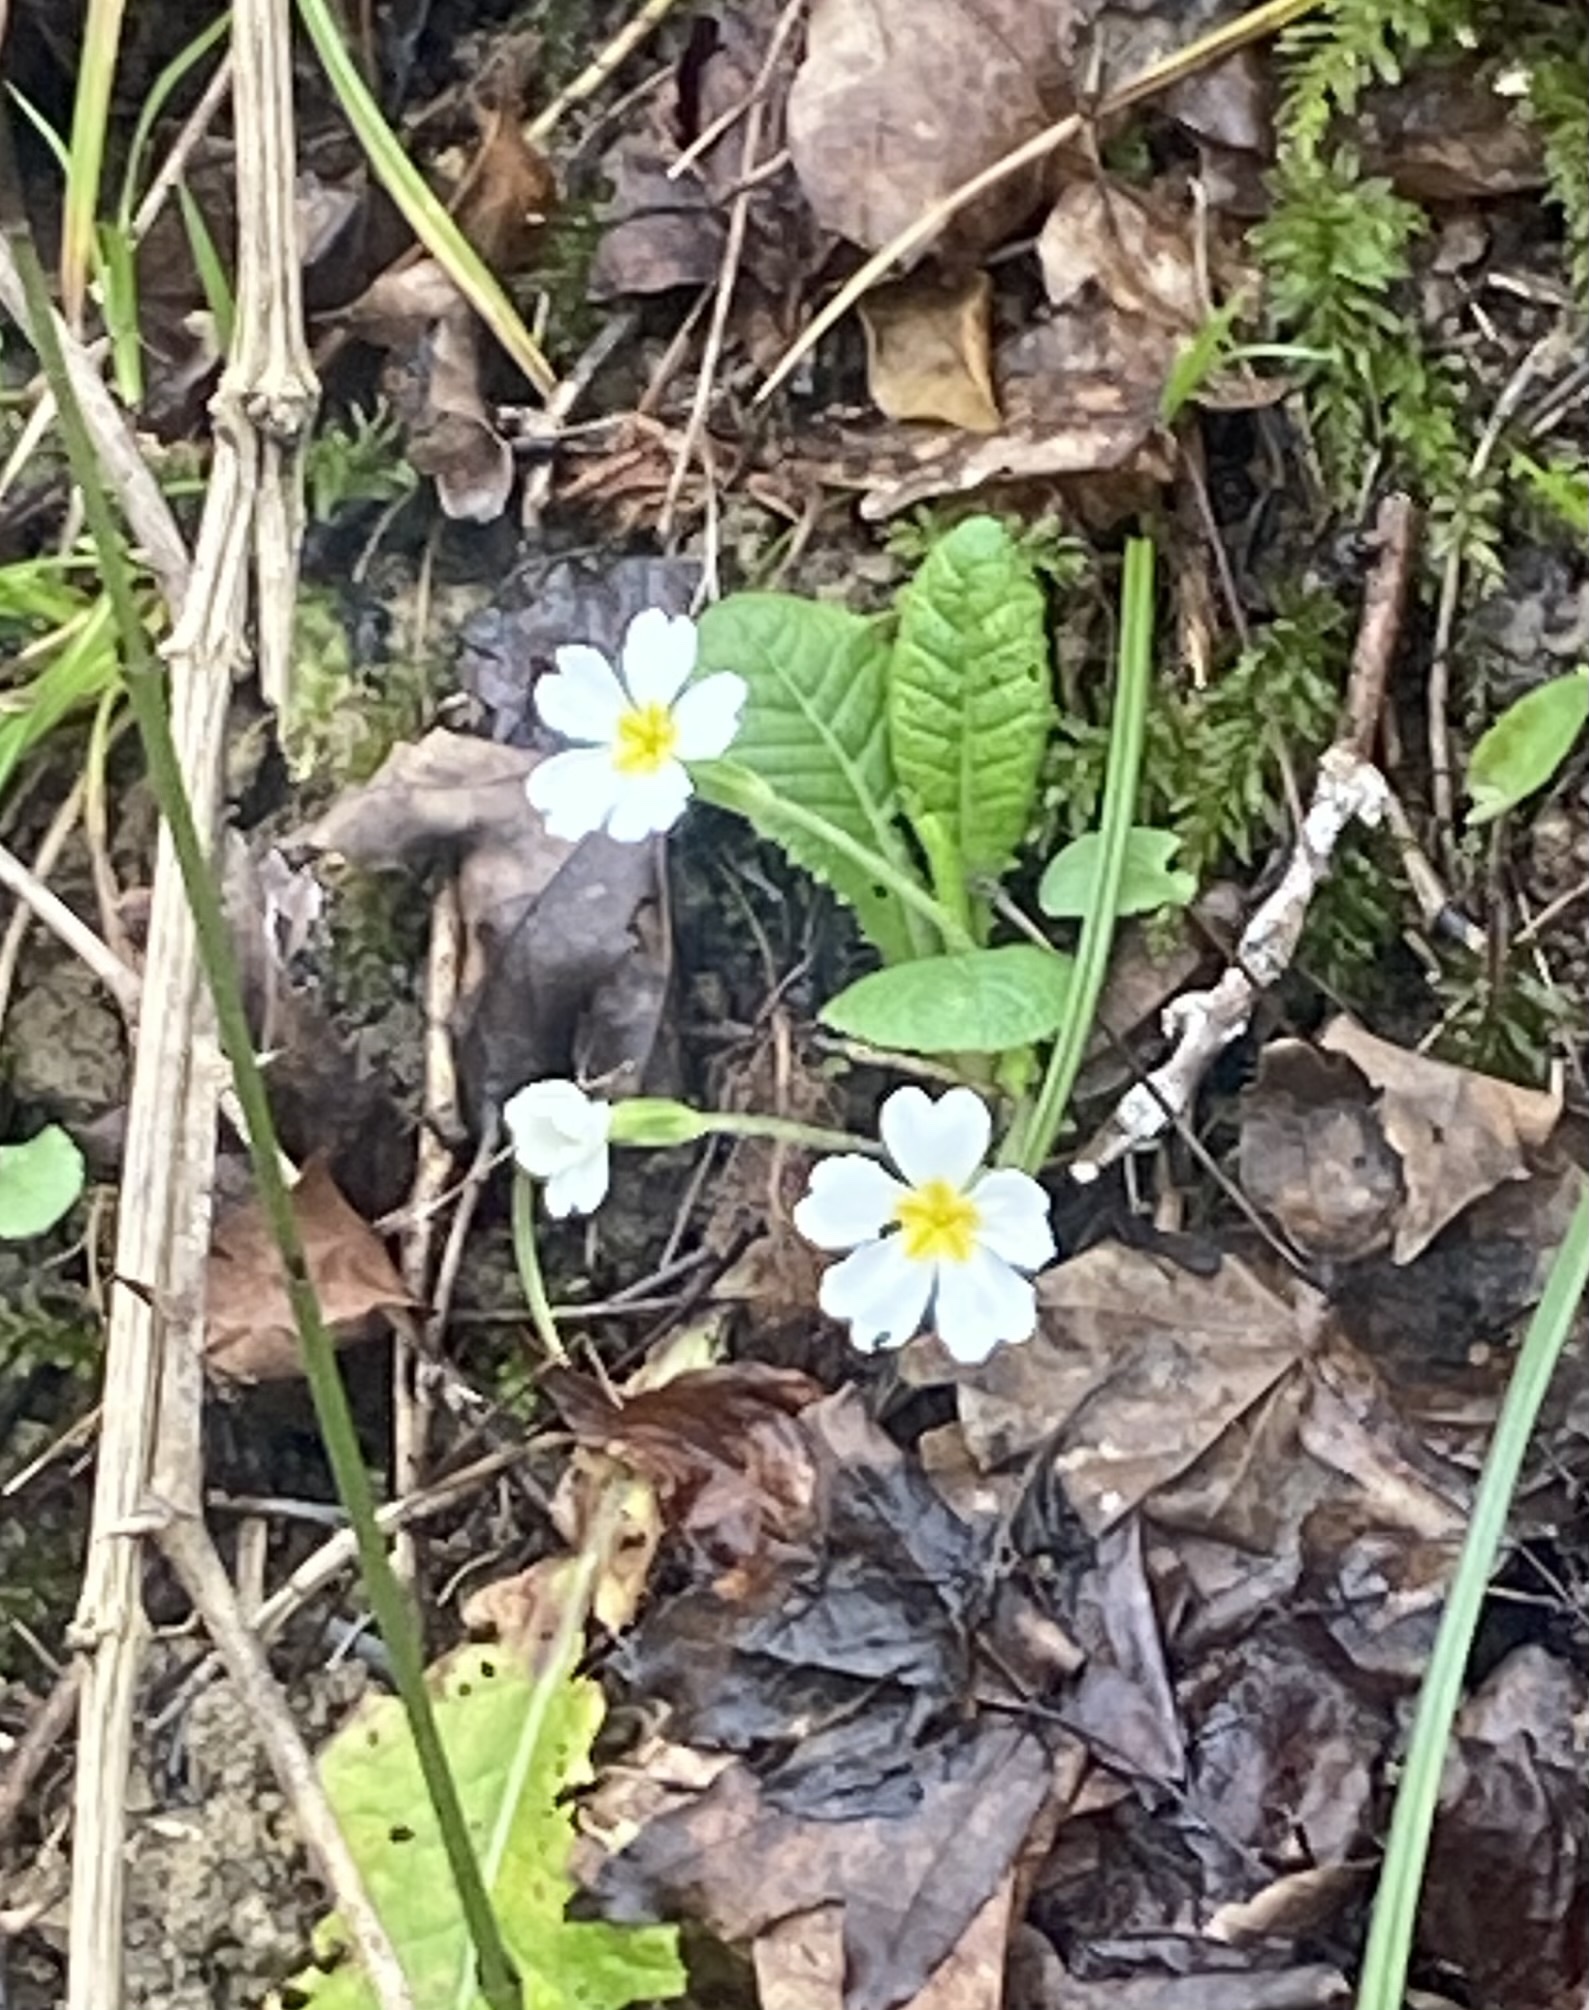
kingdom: Plantae
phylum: Tracheophyta
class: Magnoliopsida
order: Ericales
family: Primulaceae
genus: Primula
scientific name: Primula vulgaris
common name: Primrose
